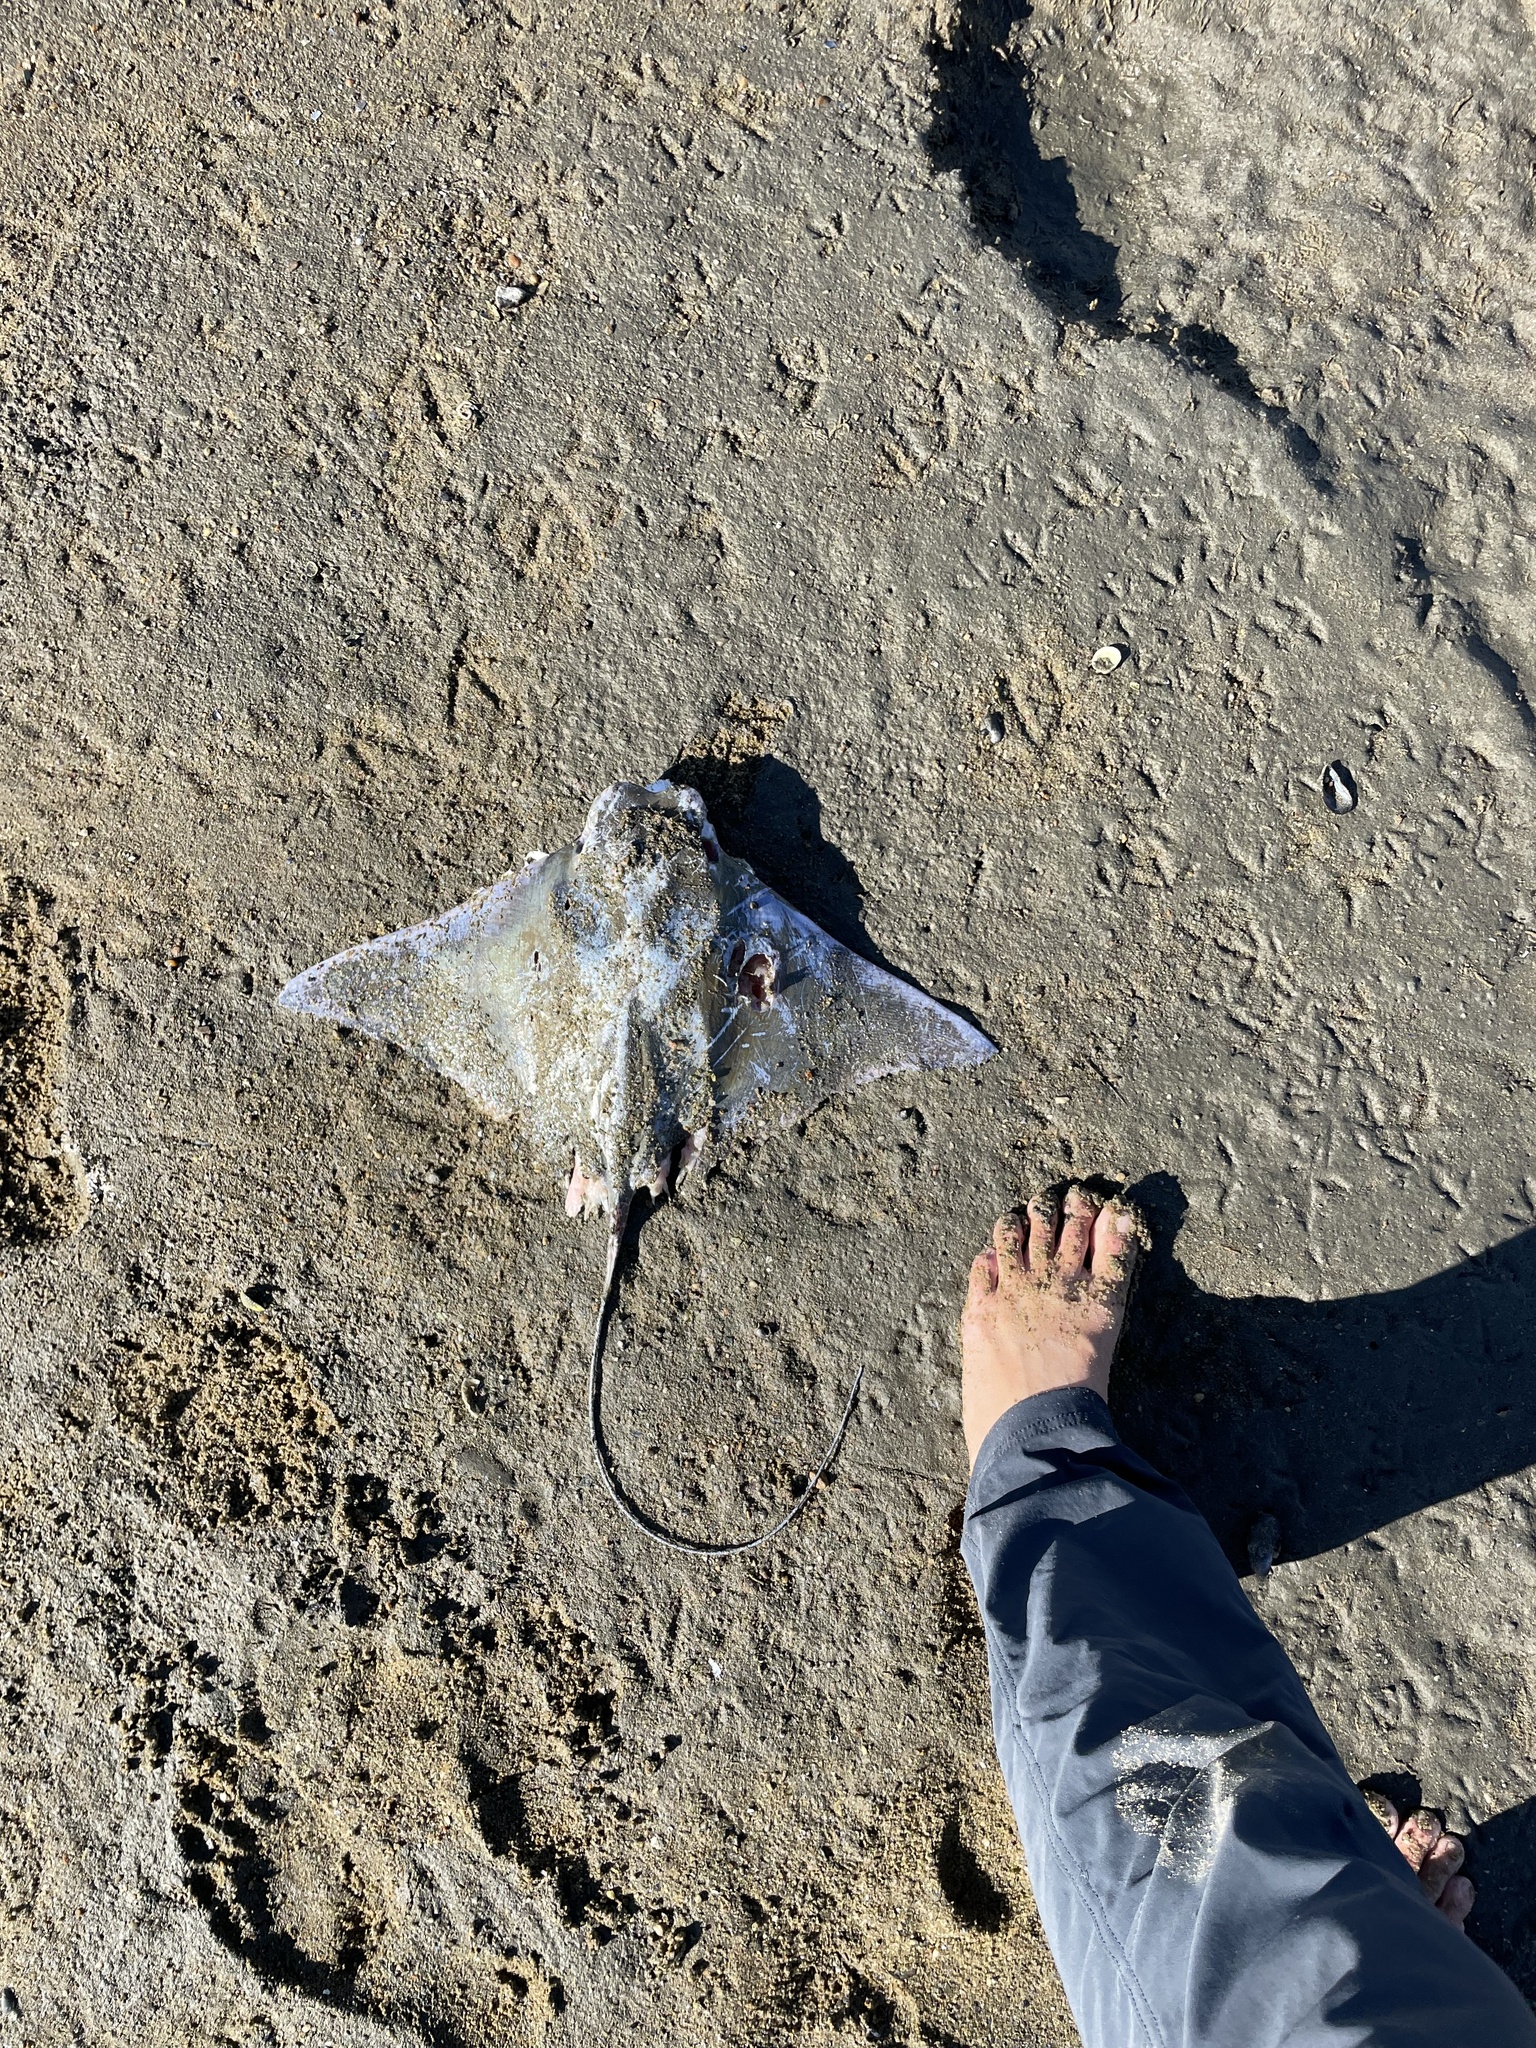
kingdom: Animalia
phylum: Chordata
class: Elasmobranchii
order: Myliobatiformes
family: Myliobatidae
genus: Rhinoptera
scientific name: Rhinoptera bonasus
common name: Cownose ray
